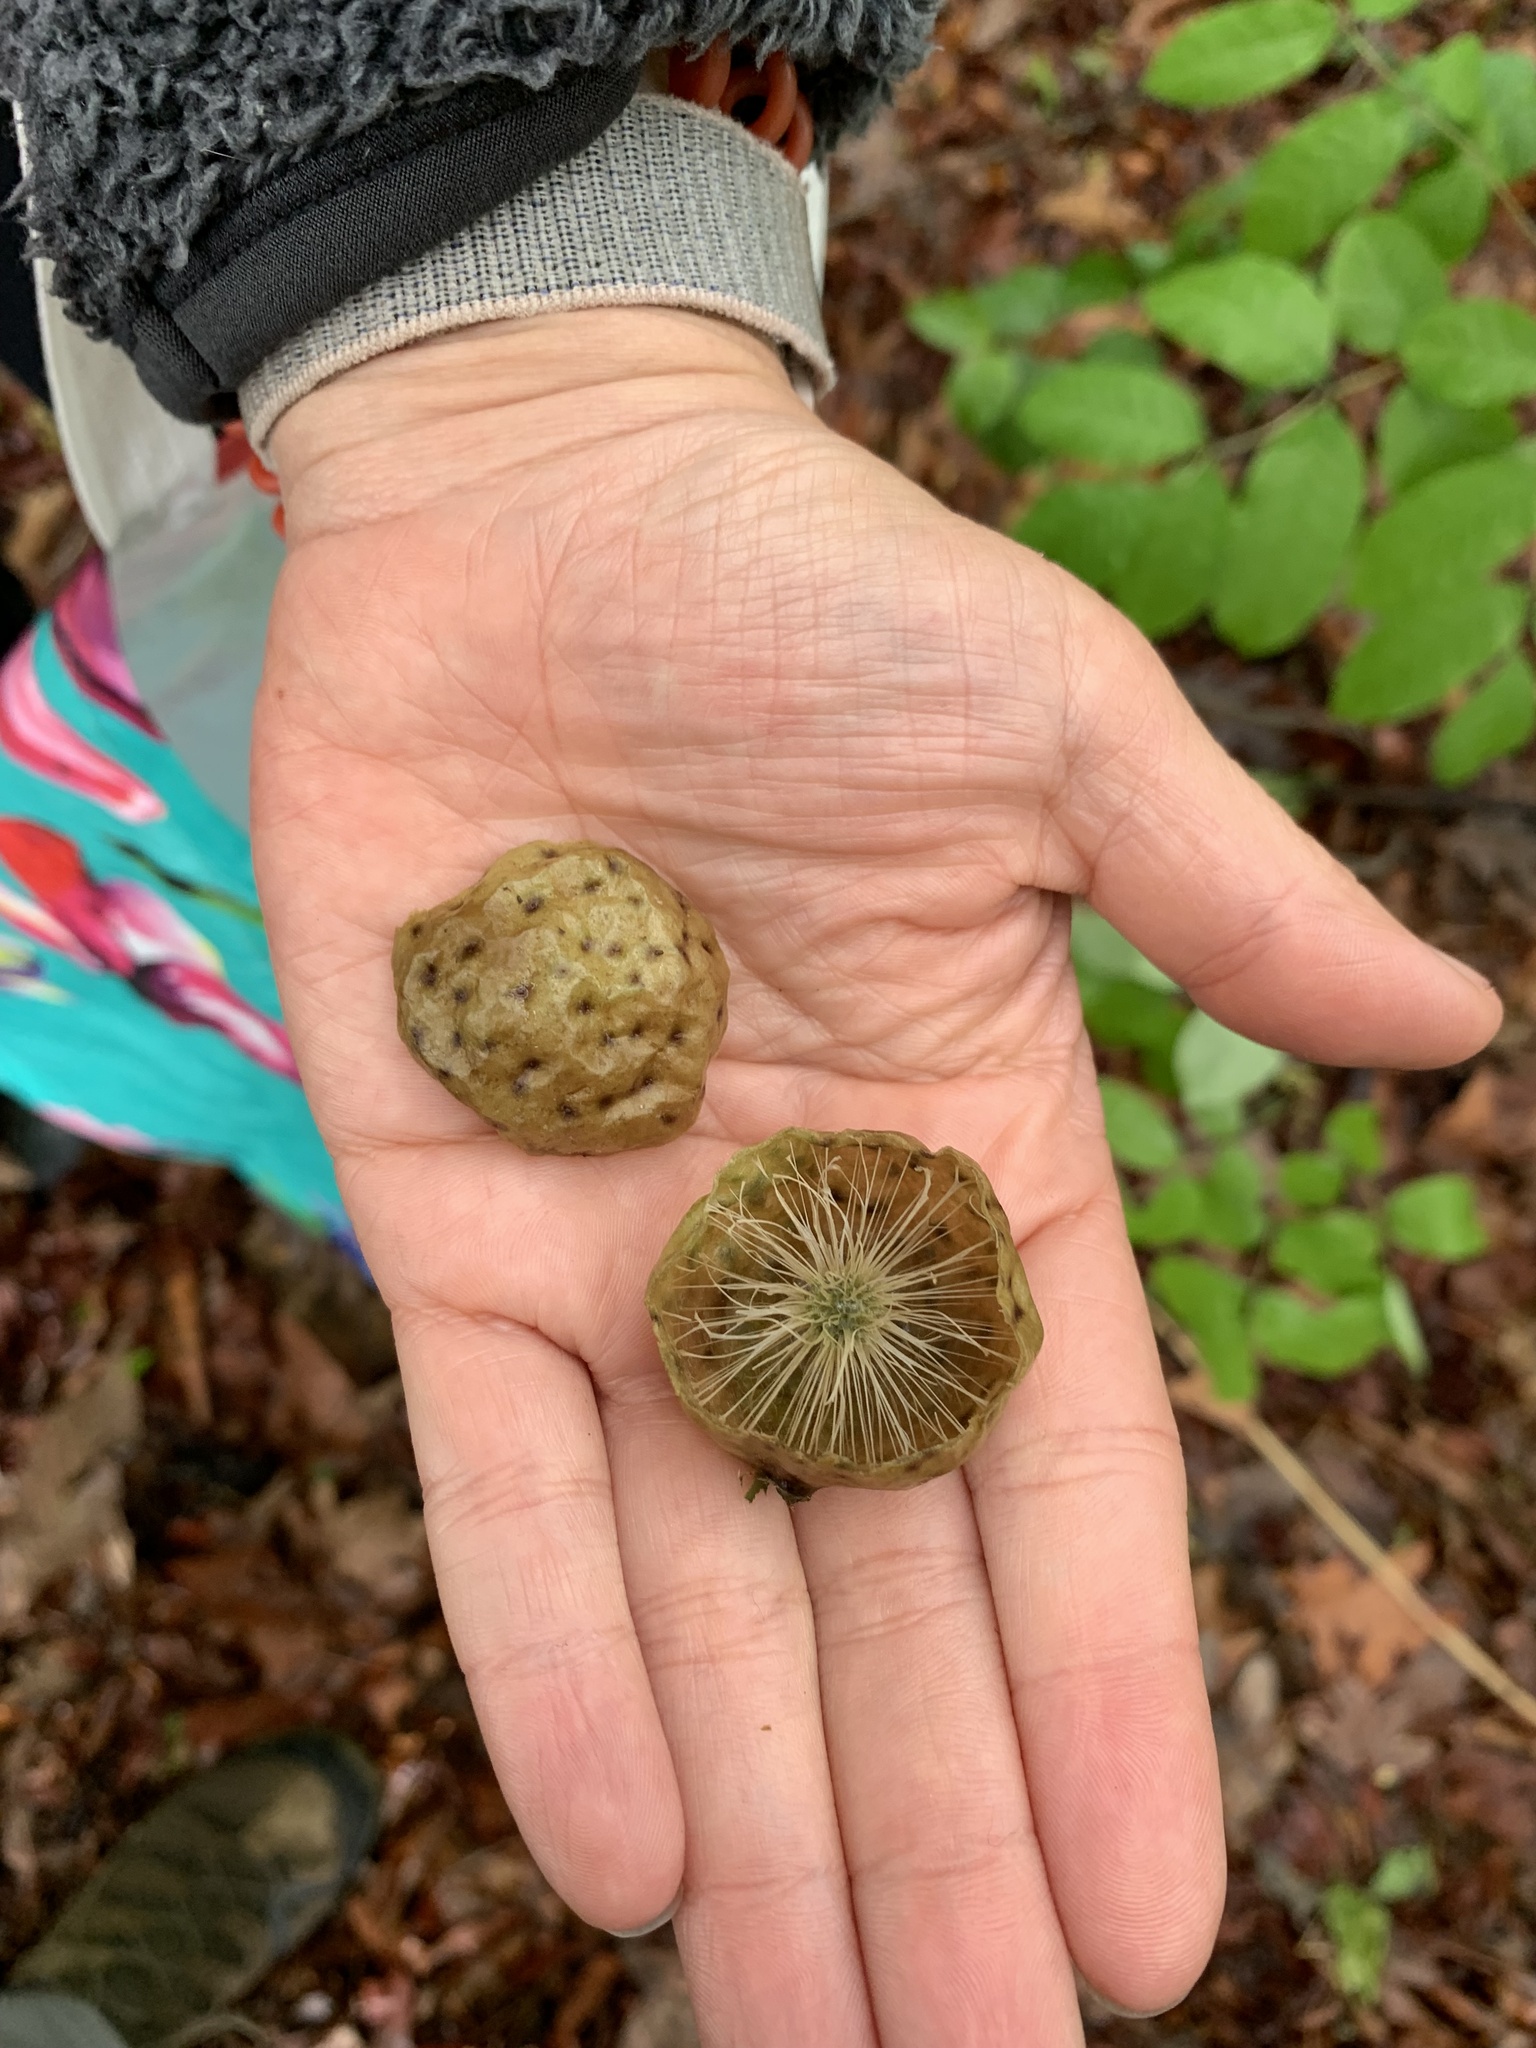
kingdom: Animalia
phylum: Arthropoda
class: Insecta
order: Hymenoptera
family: Cynipidae
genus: Amphibolips
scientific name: Amphibolips
